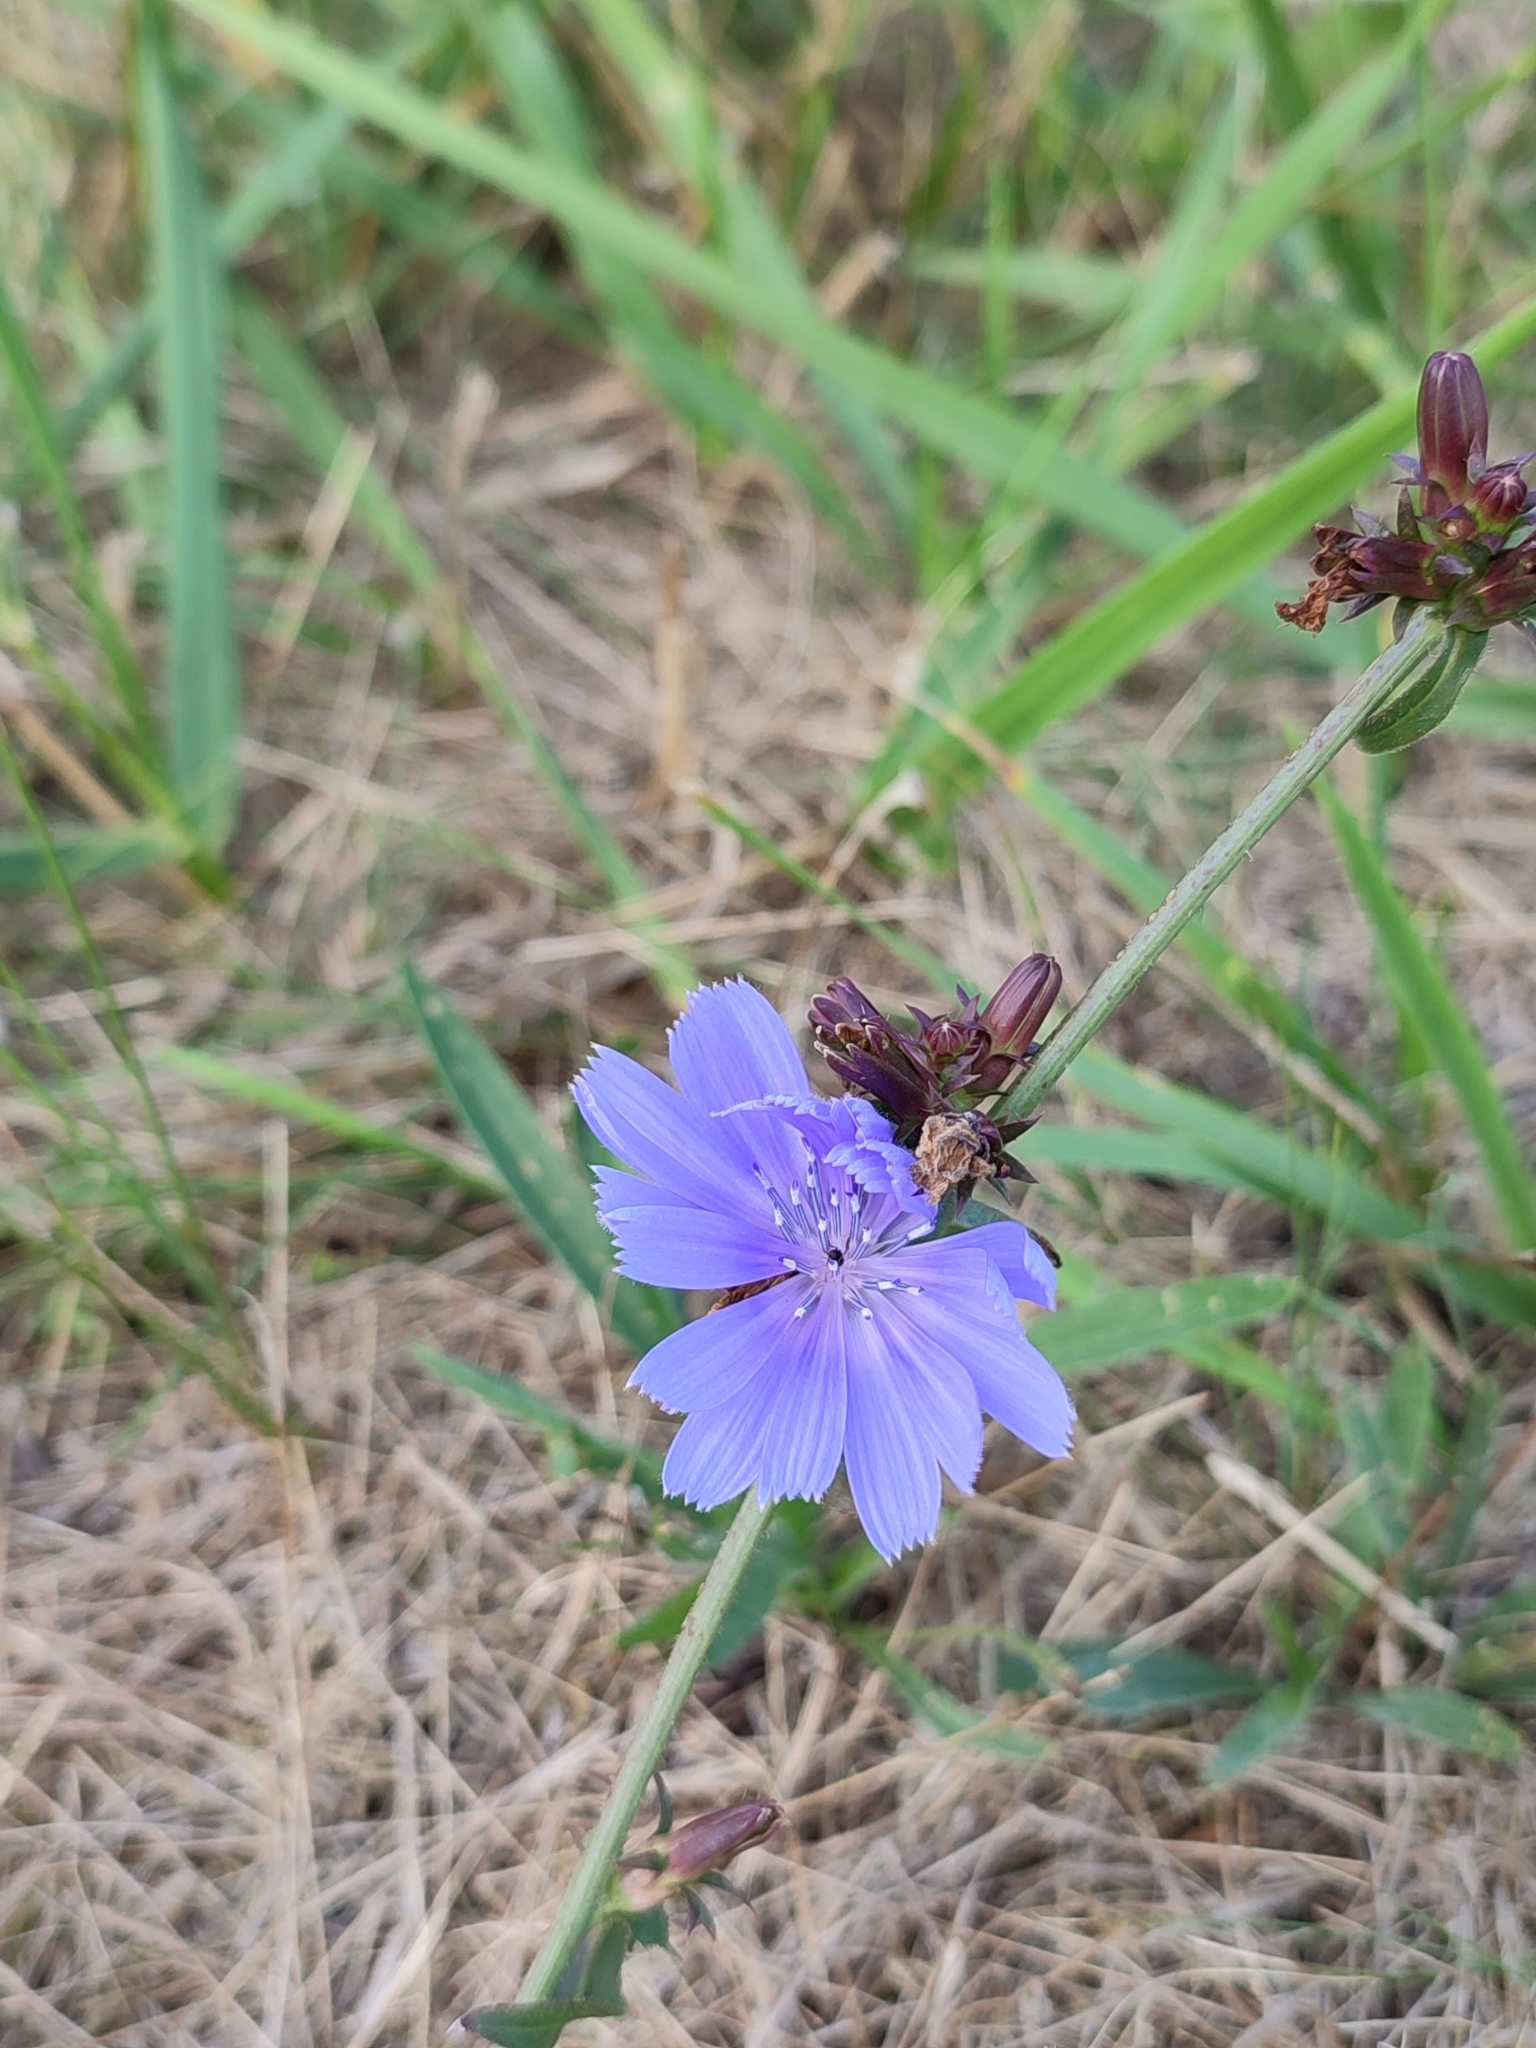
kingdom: Plantae
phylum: Tracheophyta
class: Magnoliopsida
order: Asterales
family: Asteraceae
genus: Cichorium
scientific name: Cichorium intybus
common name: Chicory
